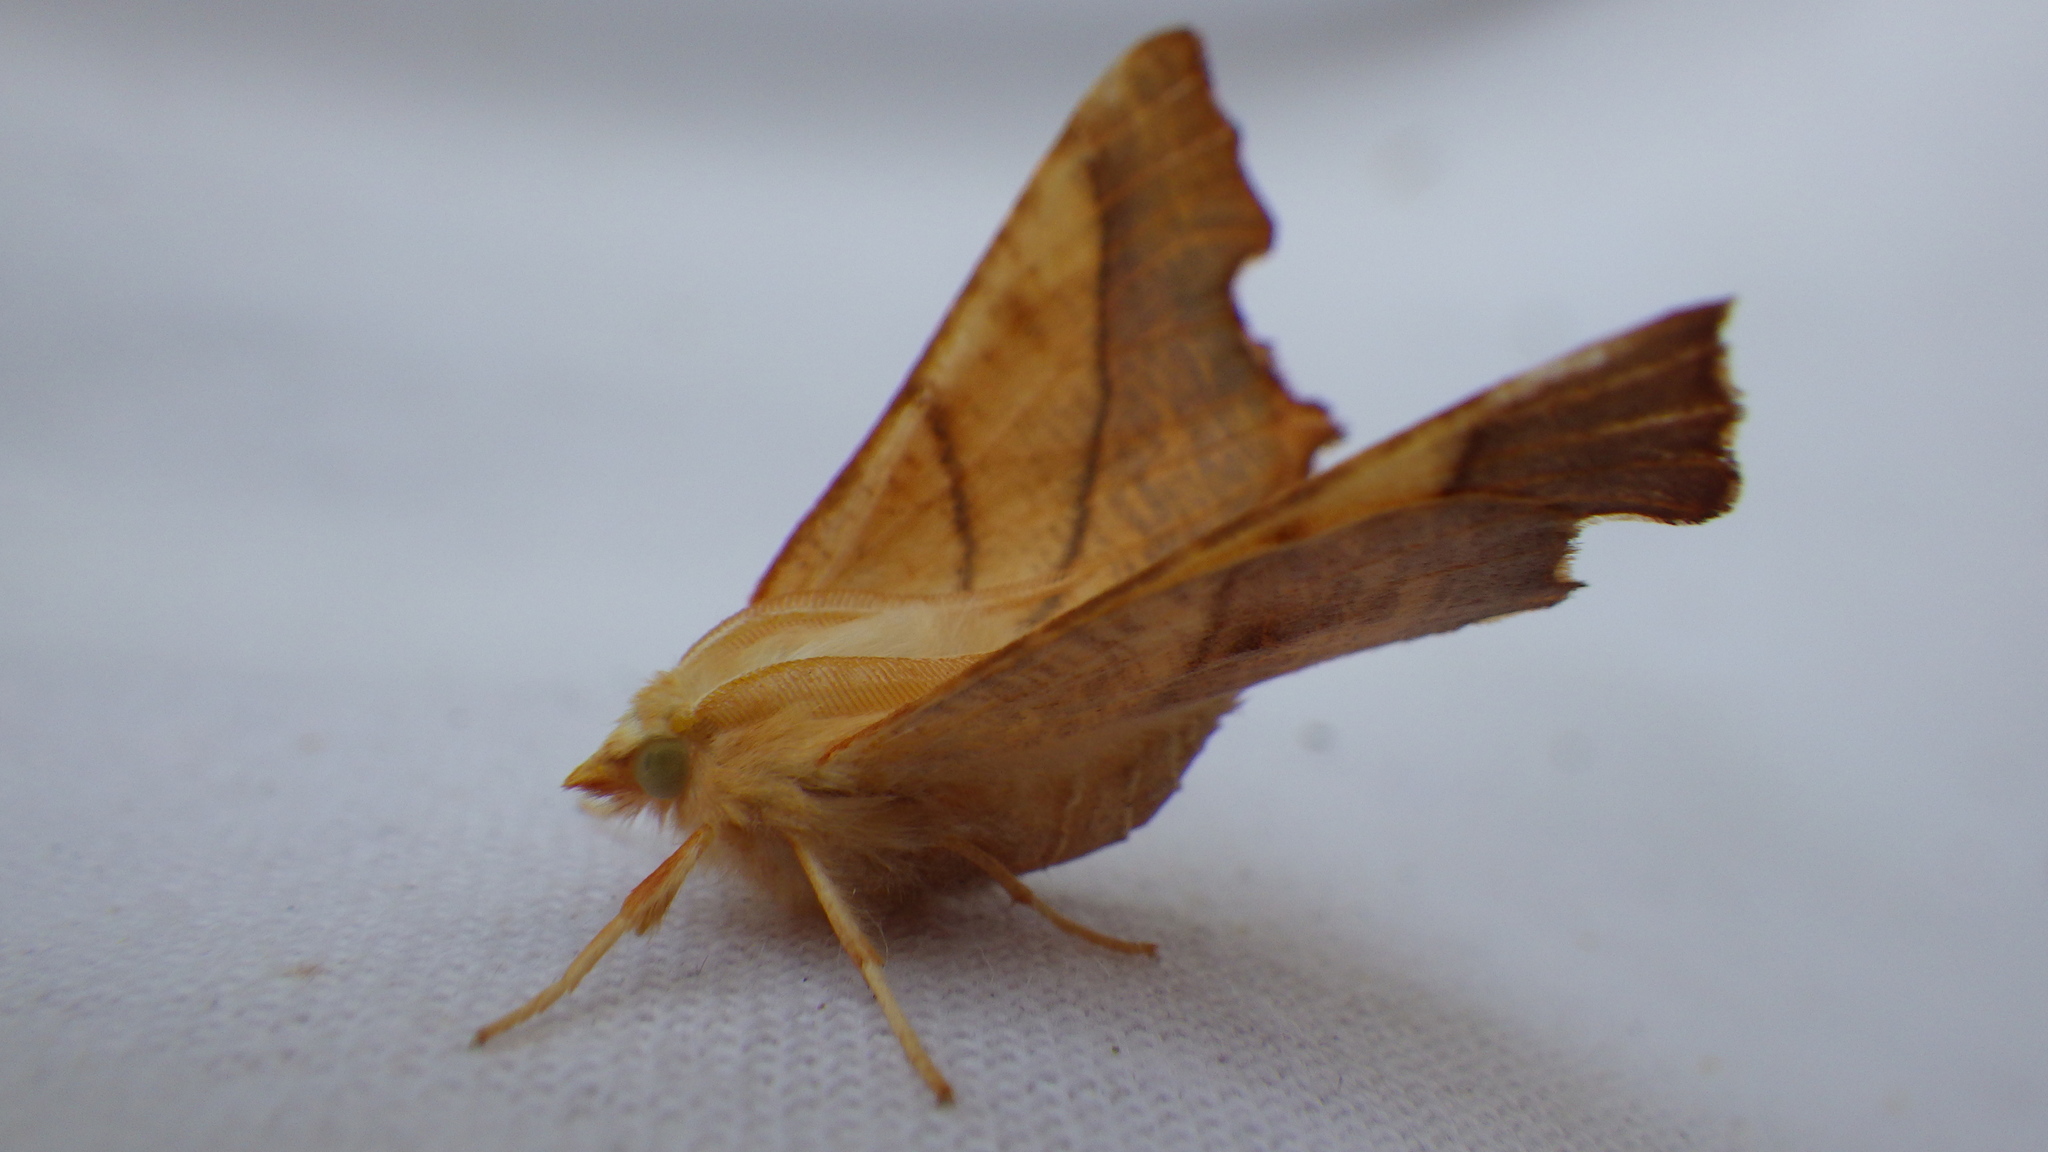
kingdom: Animalia
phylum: Arthropoda
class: Insecta
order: Lepidoptera
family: Geometridae
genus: Ennomos
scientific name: Ennomos fuscantaria
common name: Dusky thorn
